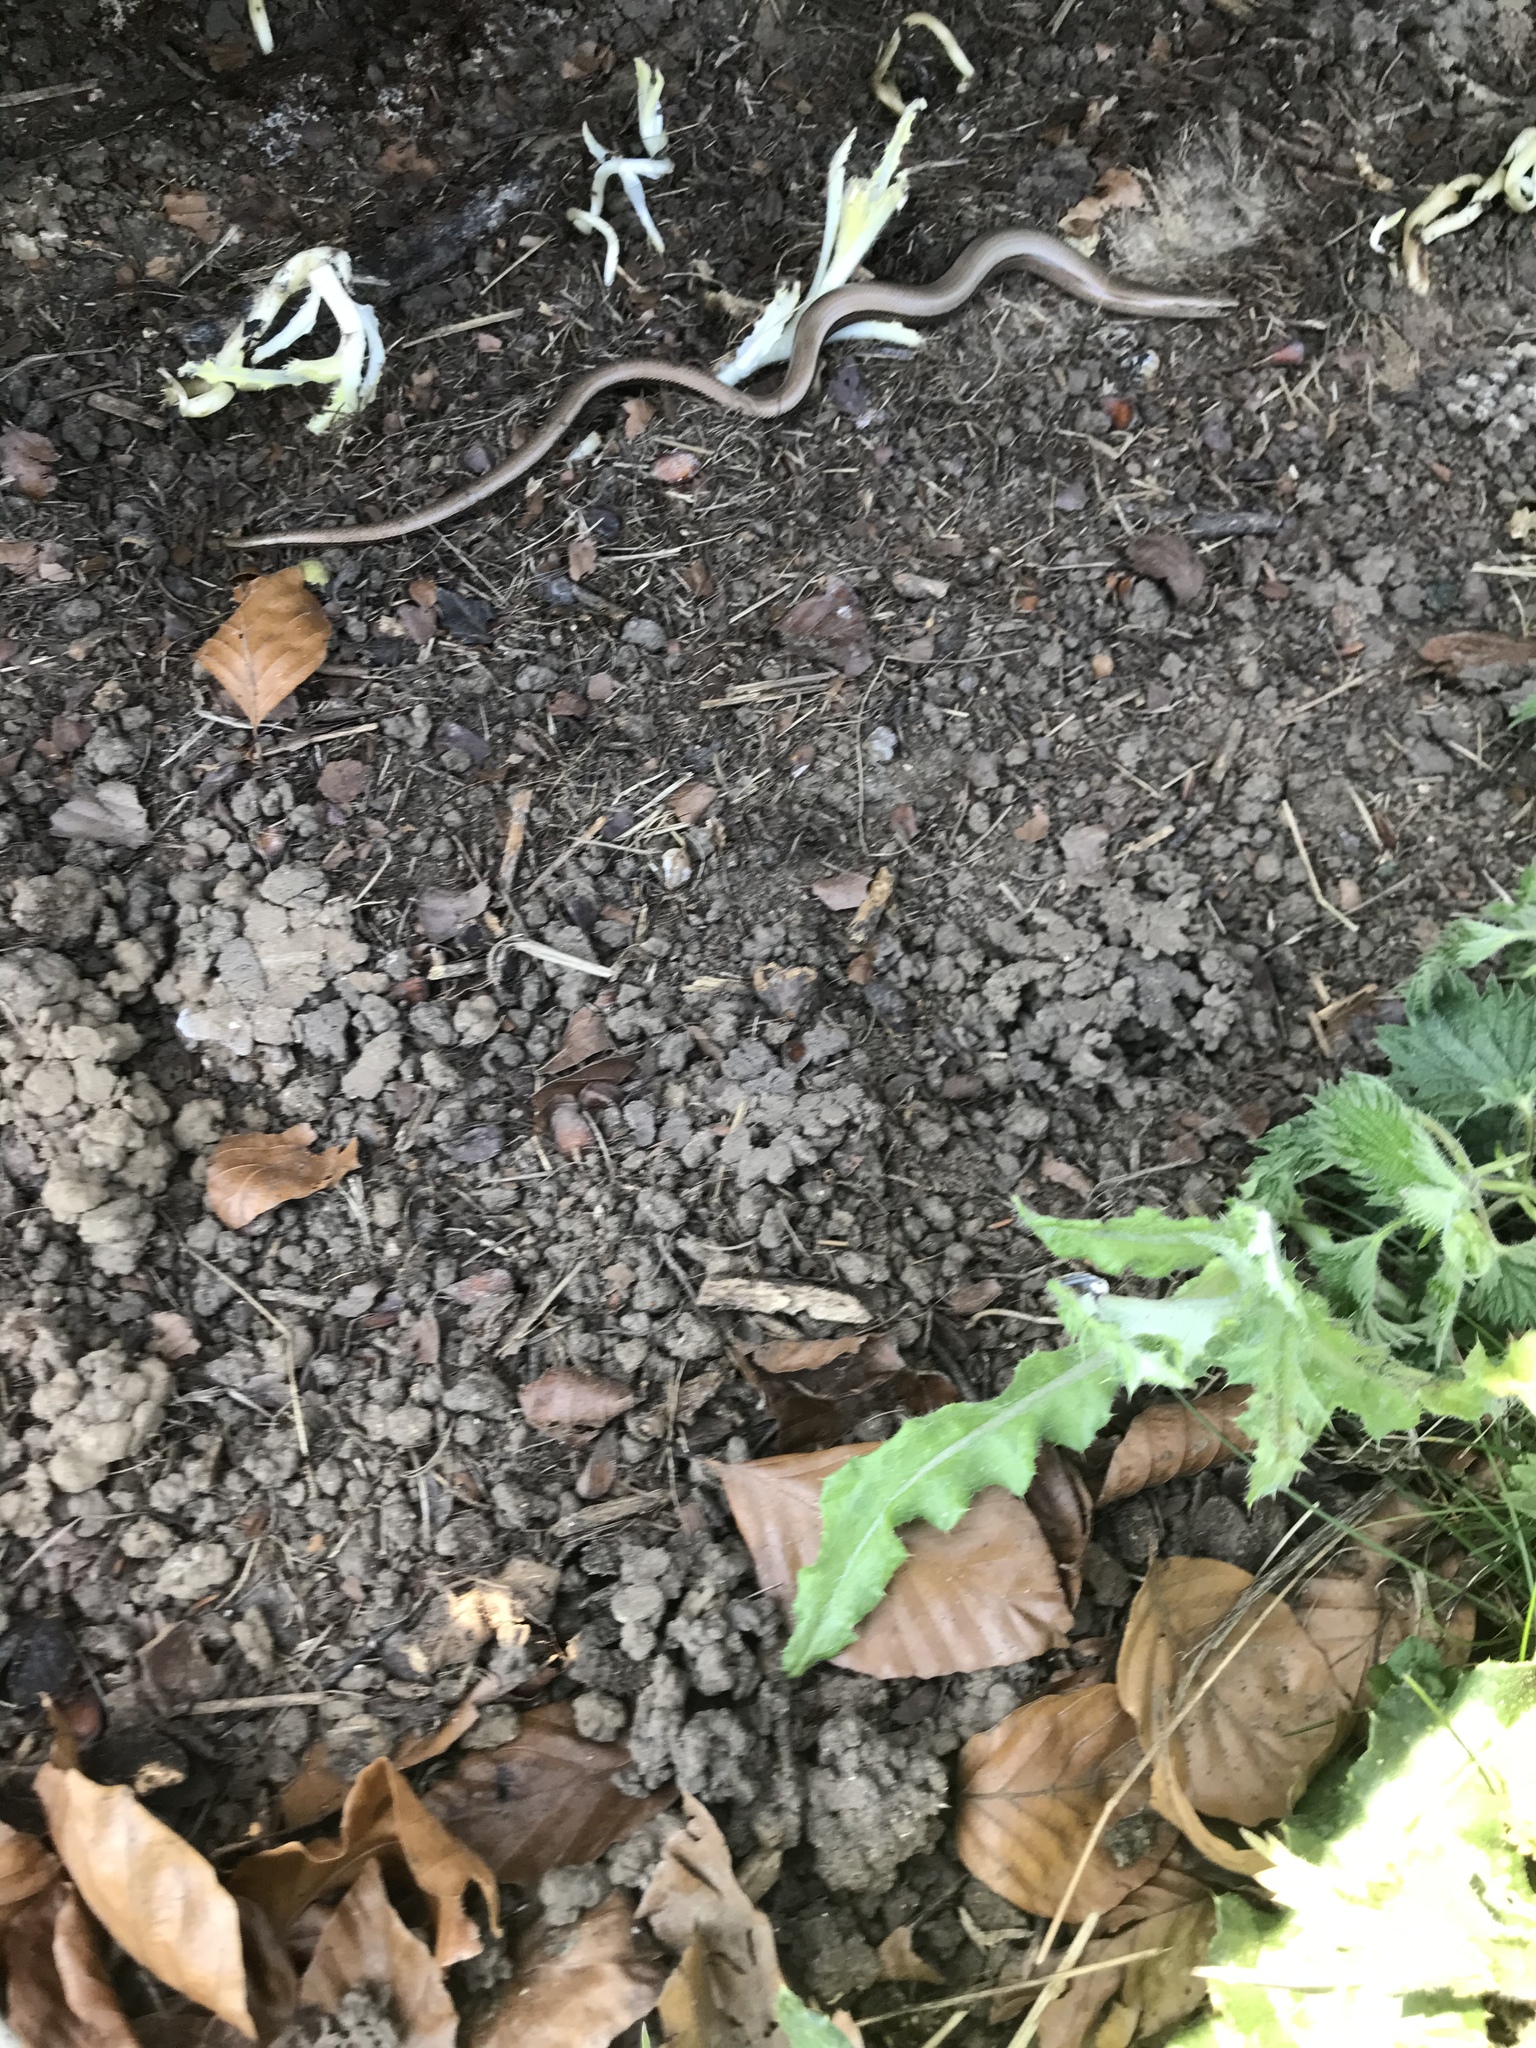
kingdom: Animalia
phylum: Chordata
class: Squamata
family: Anguidae
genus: Anguis
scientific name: Anguis fragilis
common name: Slow worm
